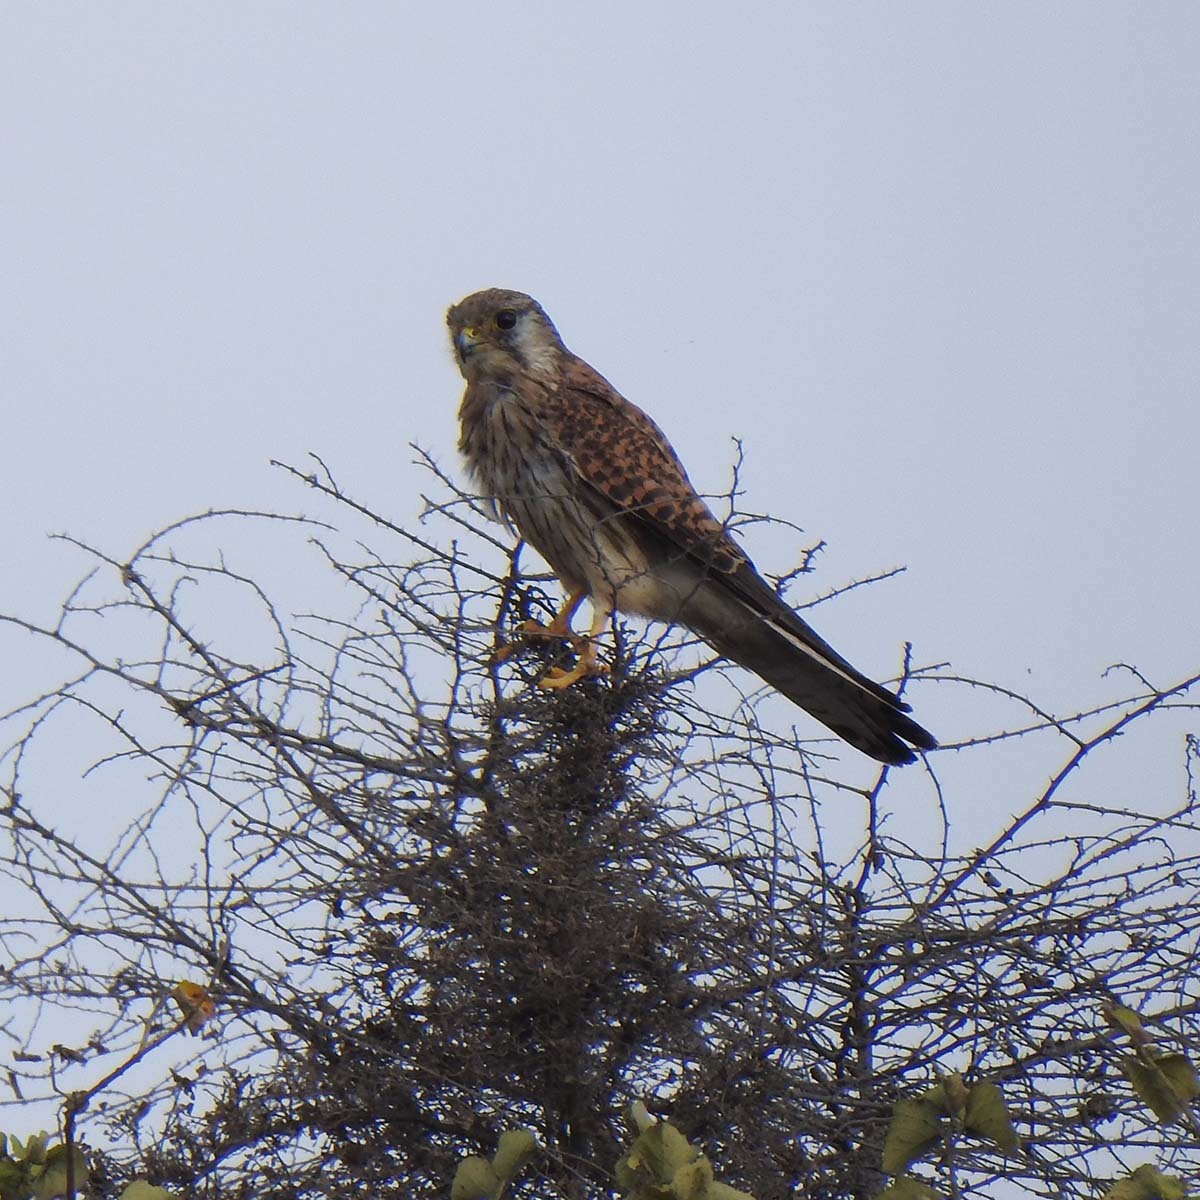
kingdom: Animalia
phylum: Chordata
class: Aves
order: Falconiformes
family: Falconidae
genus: Falco
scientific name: Falco tinnunculus
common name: Common kestrel
